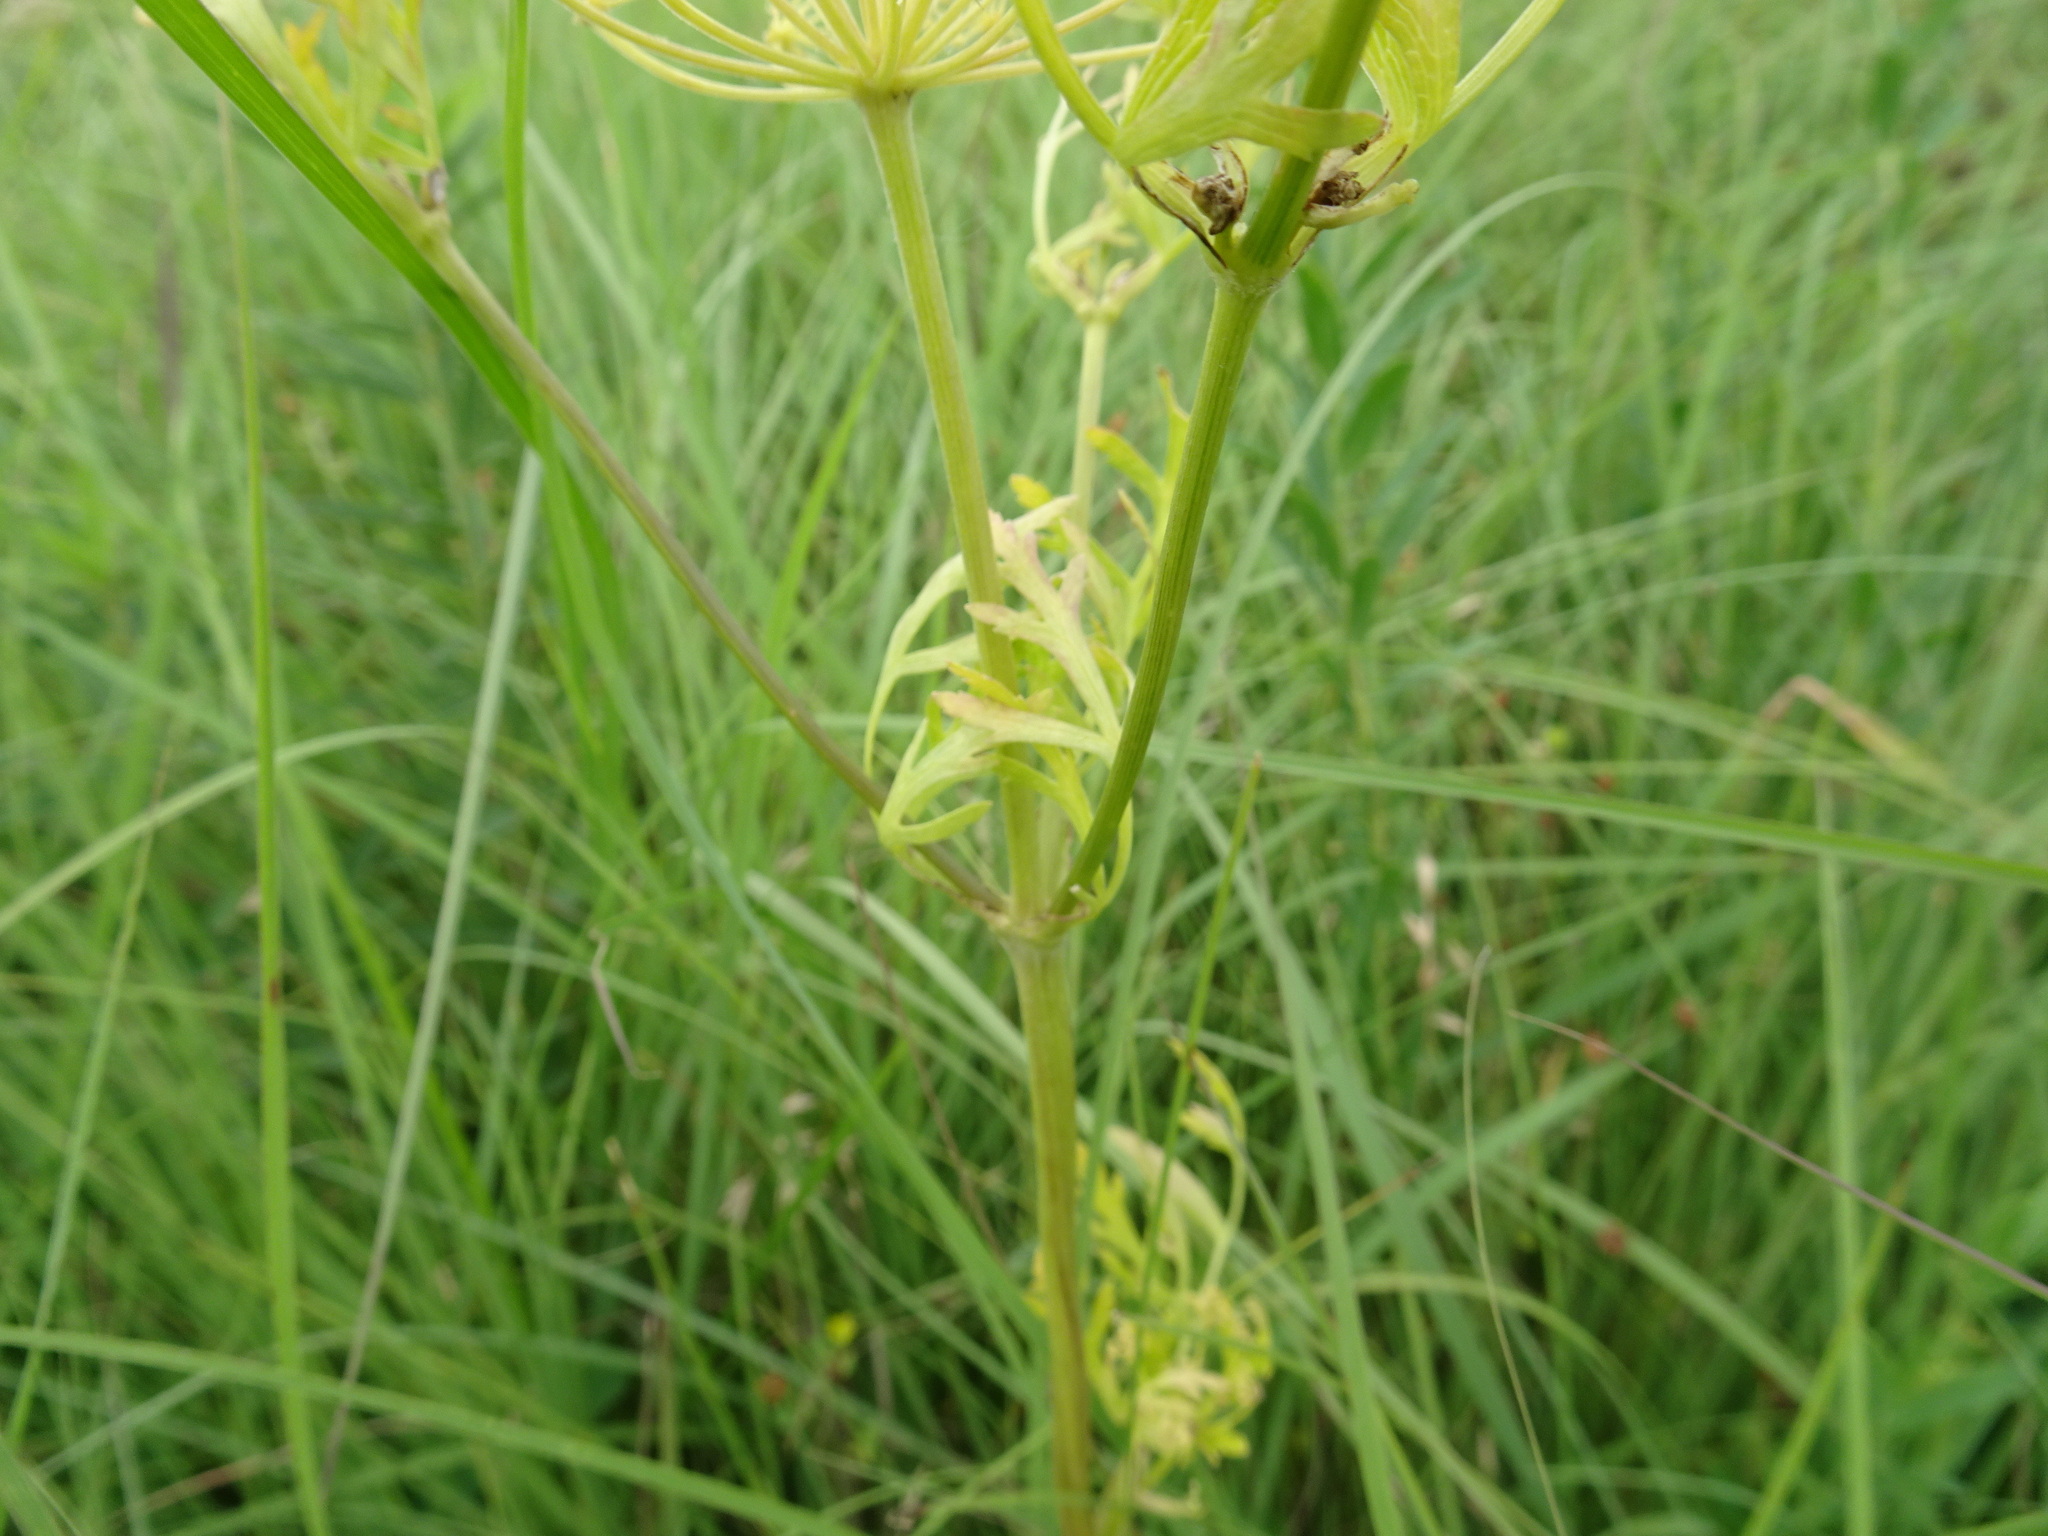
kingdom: Plantae
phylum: Tracheophyta
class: Magnoliopsida
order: Apiales
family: Apiaceae
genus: Polytaenia
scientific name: Polytaenia nuttallii
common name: Prairie-parsley
